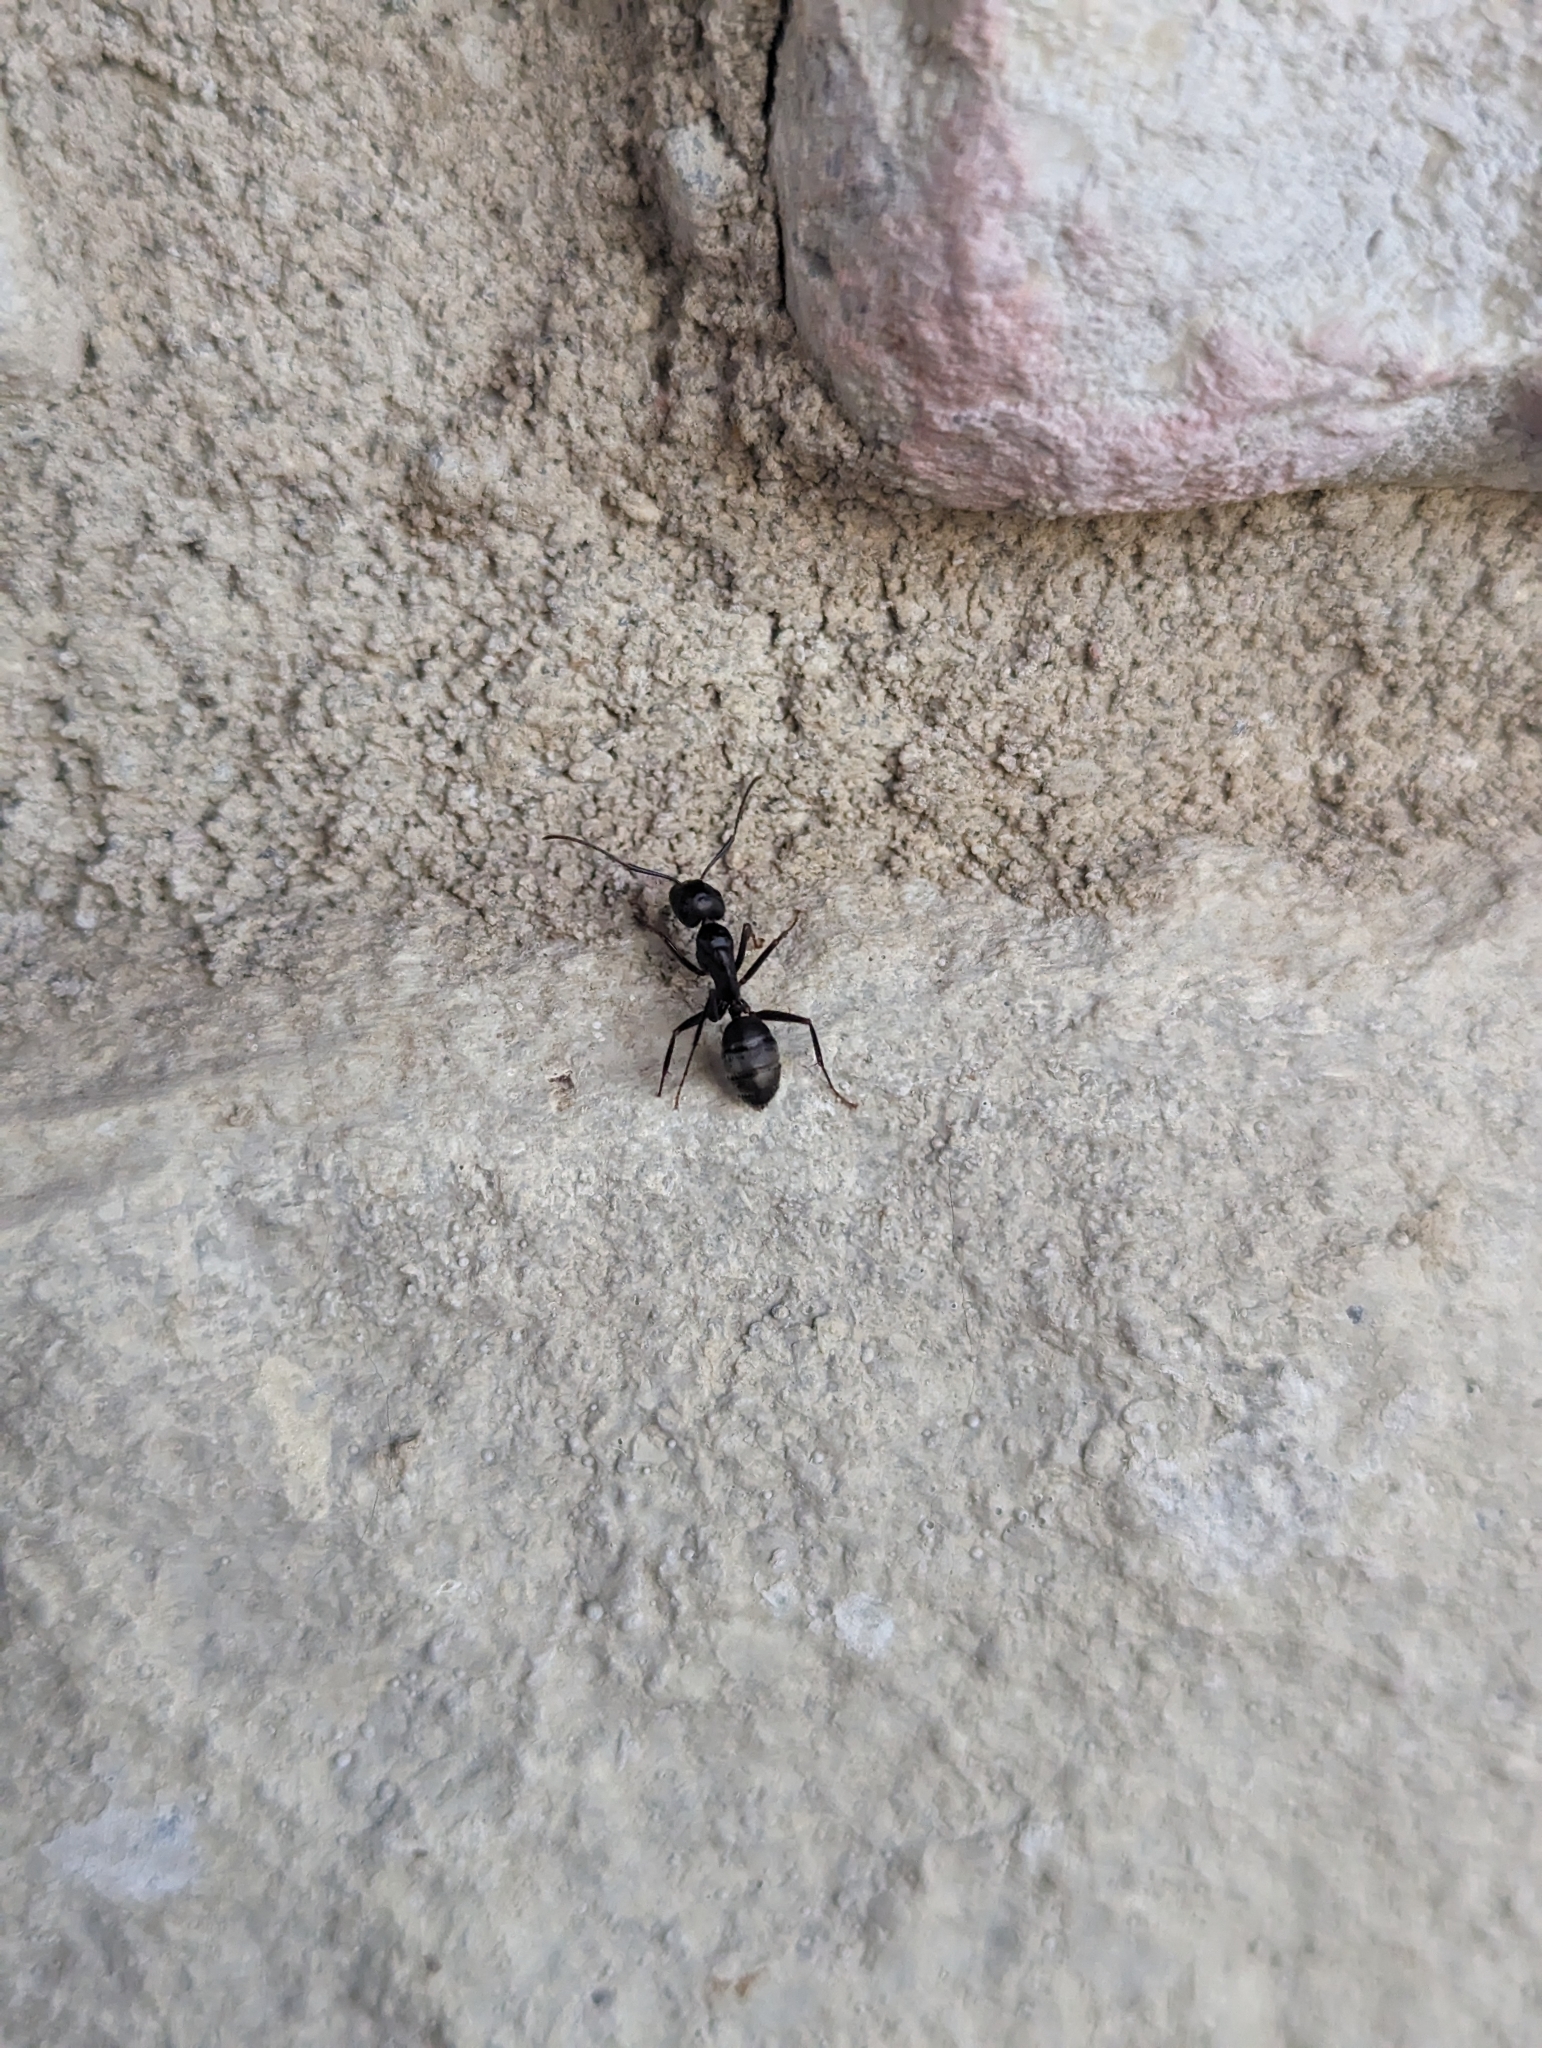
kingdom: Animalia
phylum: Arthropoda
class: Insecta
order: Hymenoptera
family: Formicidae
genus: Camponotus
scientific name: Camponotus pennsylvanicus
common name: Black carpenter ant
